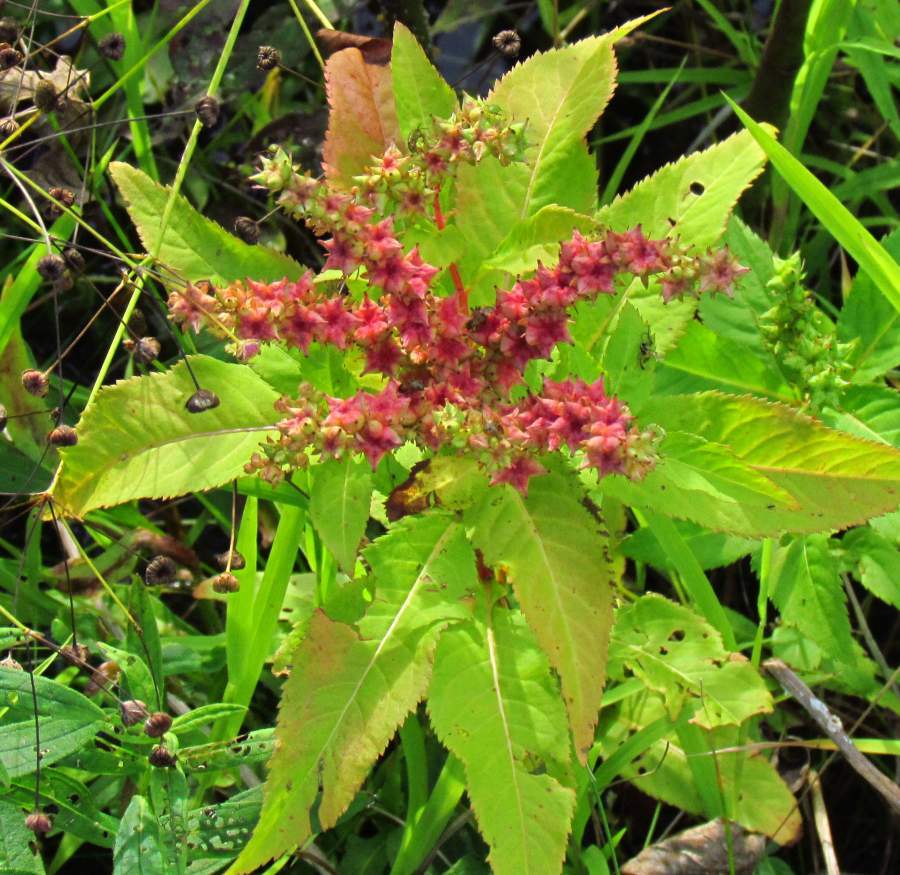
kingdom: Plantae
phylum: Tracheophyta
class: Magnoliopsida
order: Saxifragales
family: Penthoraceae
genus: Penthorum
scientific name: Penthorum sedoides
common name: Ditch stonecrop
